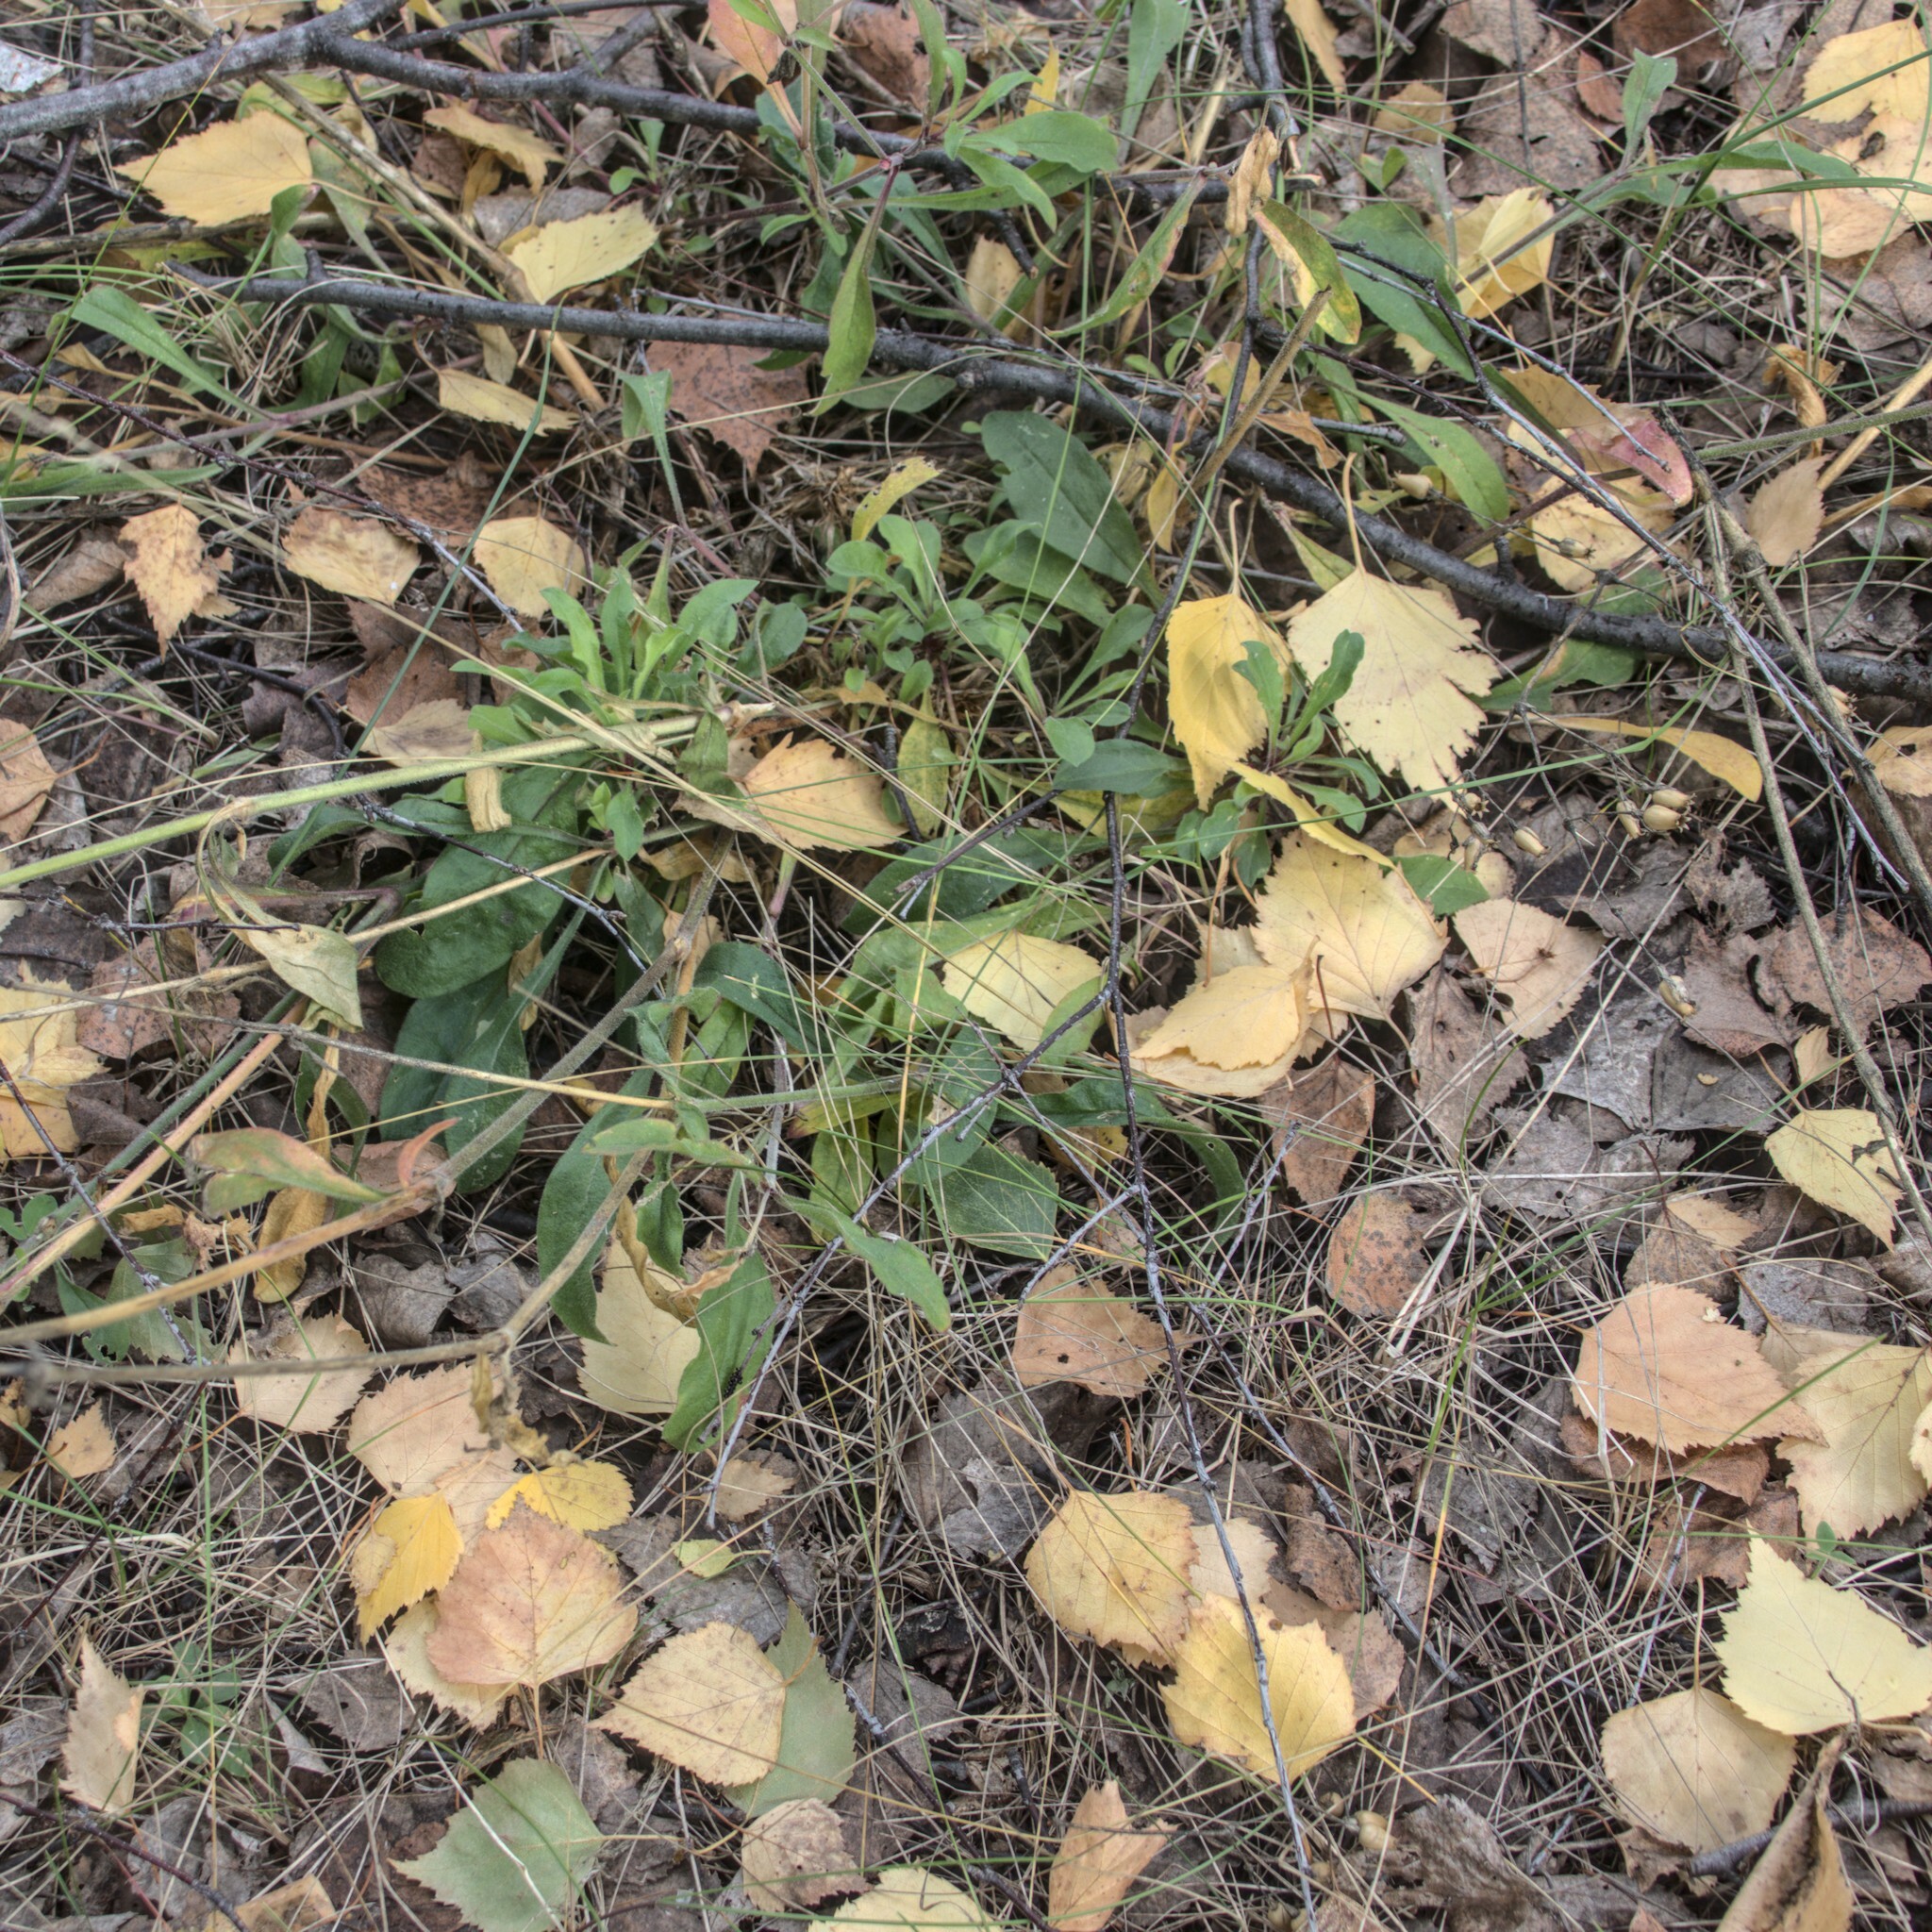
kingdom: Plantae
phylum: Tracheophyta
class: Magnoliopsida
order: Caryophyllales
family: Caryophyllaceae
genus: Silene
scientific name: Silene nutans
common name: Nottingham catchfly
